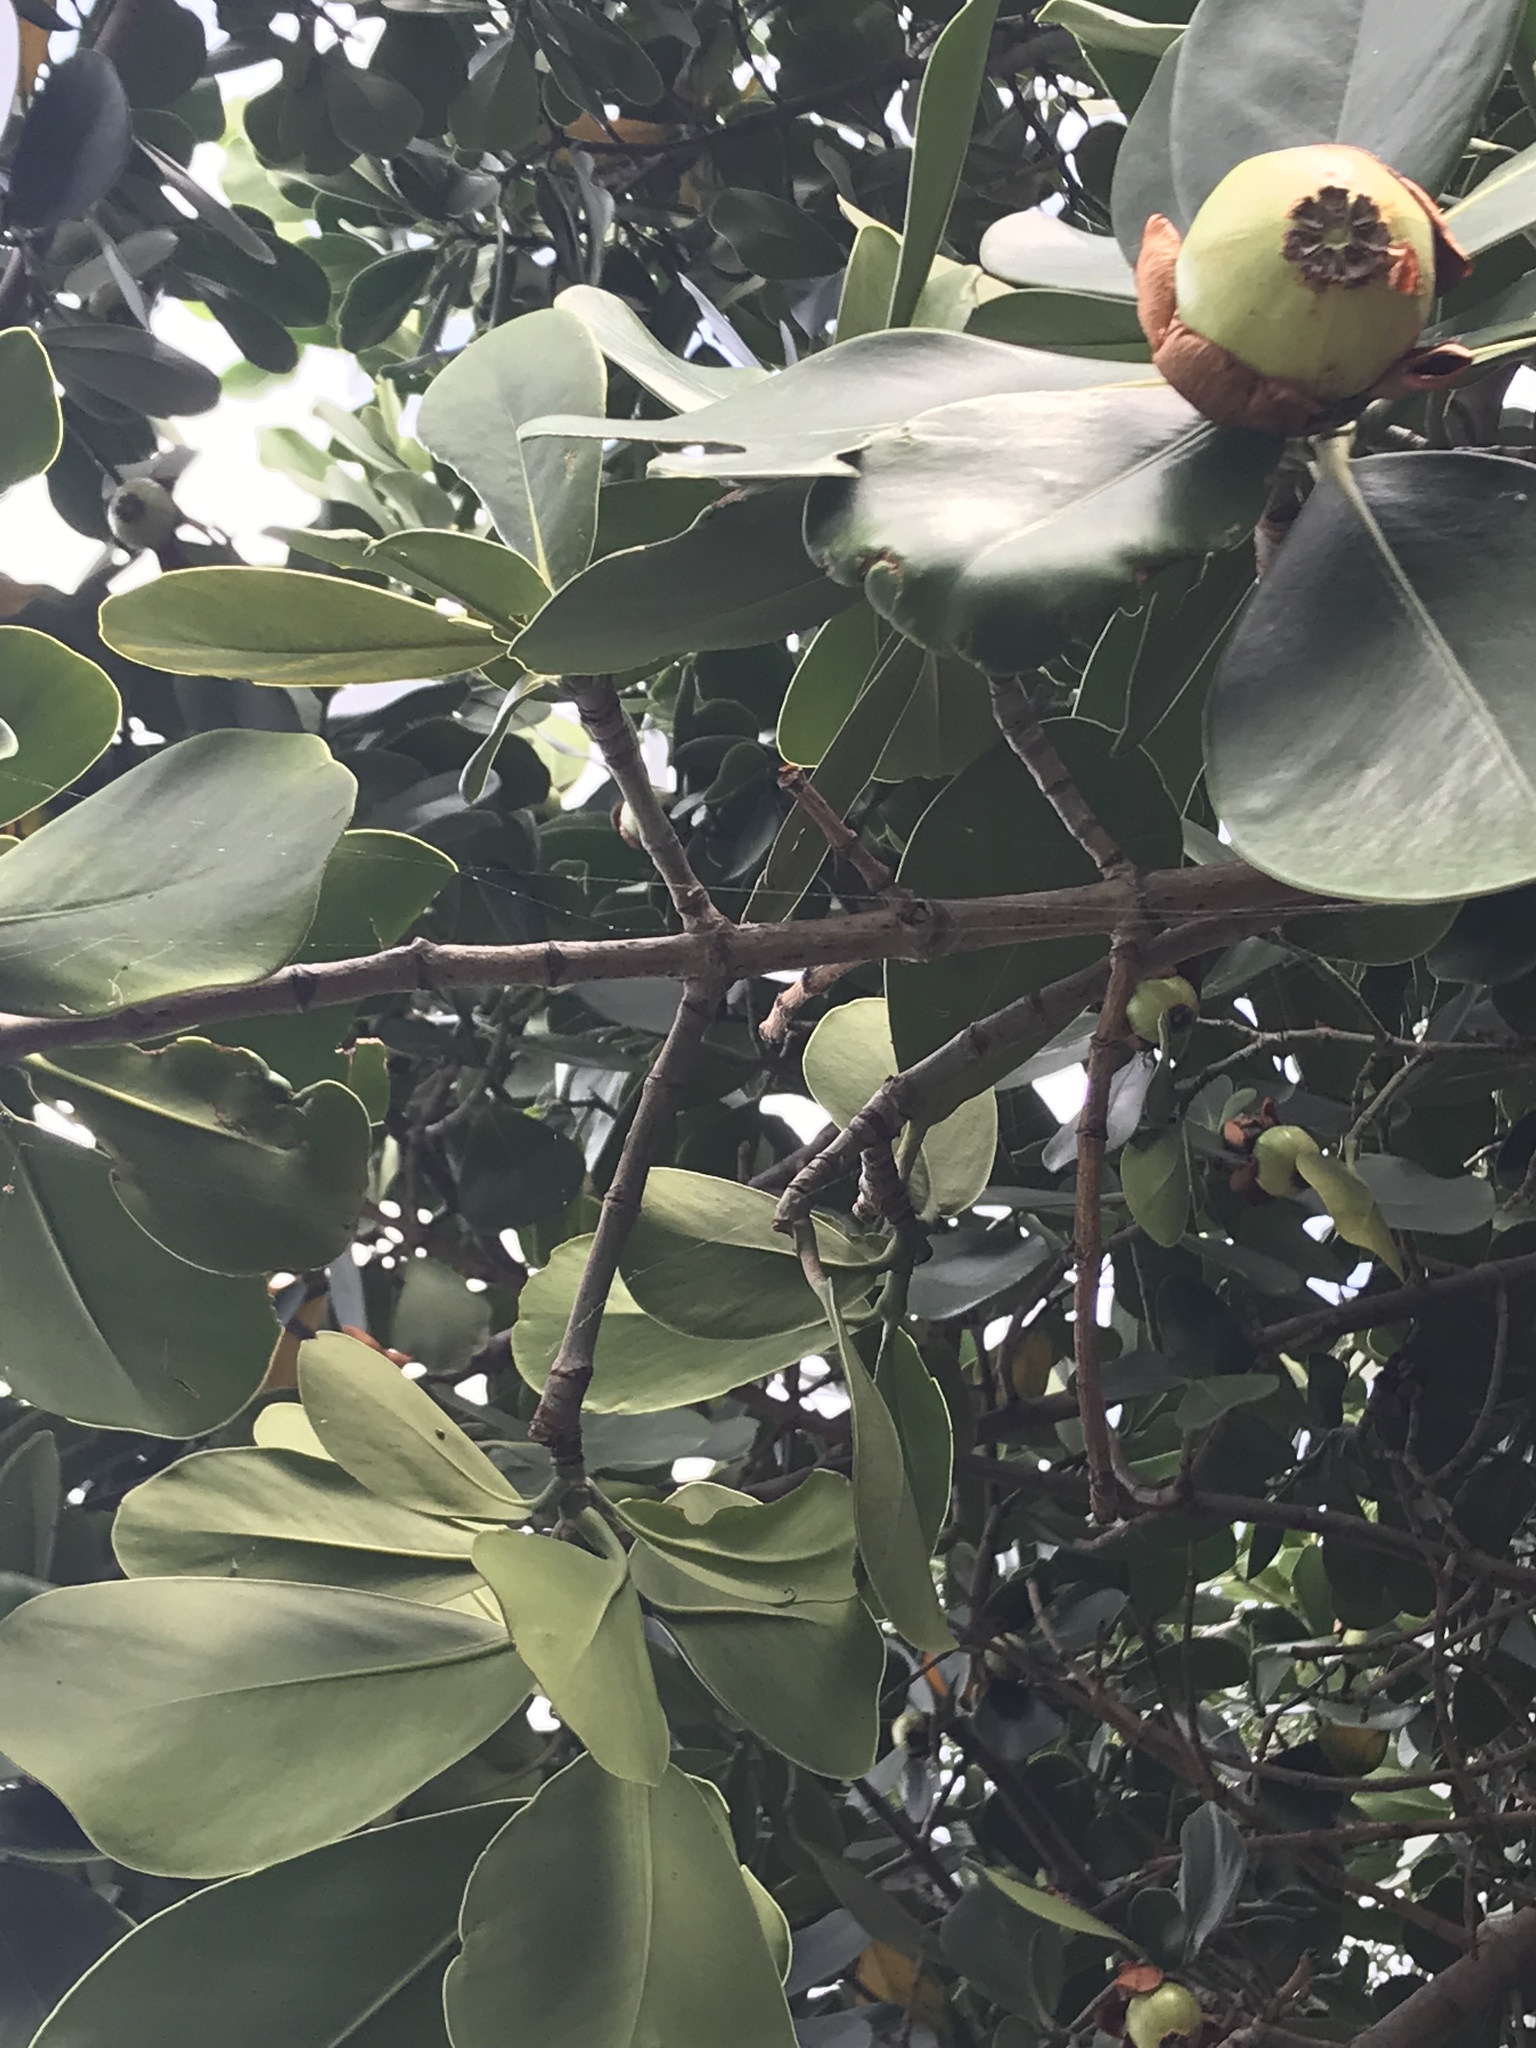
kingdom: Plantae
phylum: Tracheophyta
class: Magnoliopsida
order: Malpighiales
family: Clusiaceae
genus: Clusia
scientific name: Clusia rosea
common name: Scotch attorney
